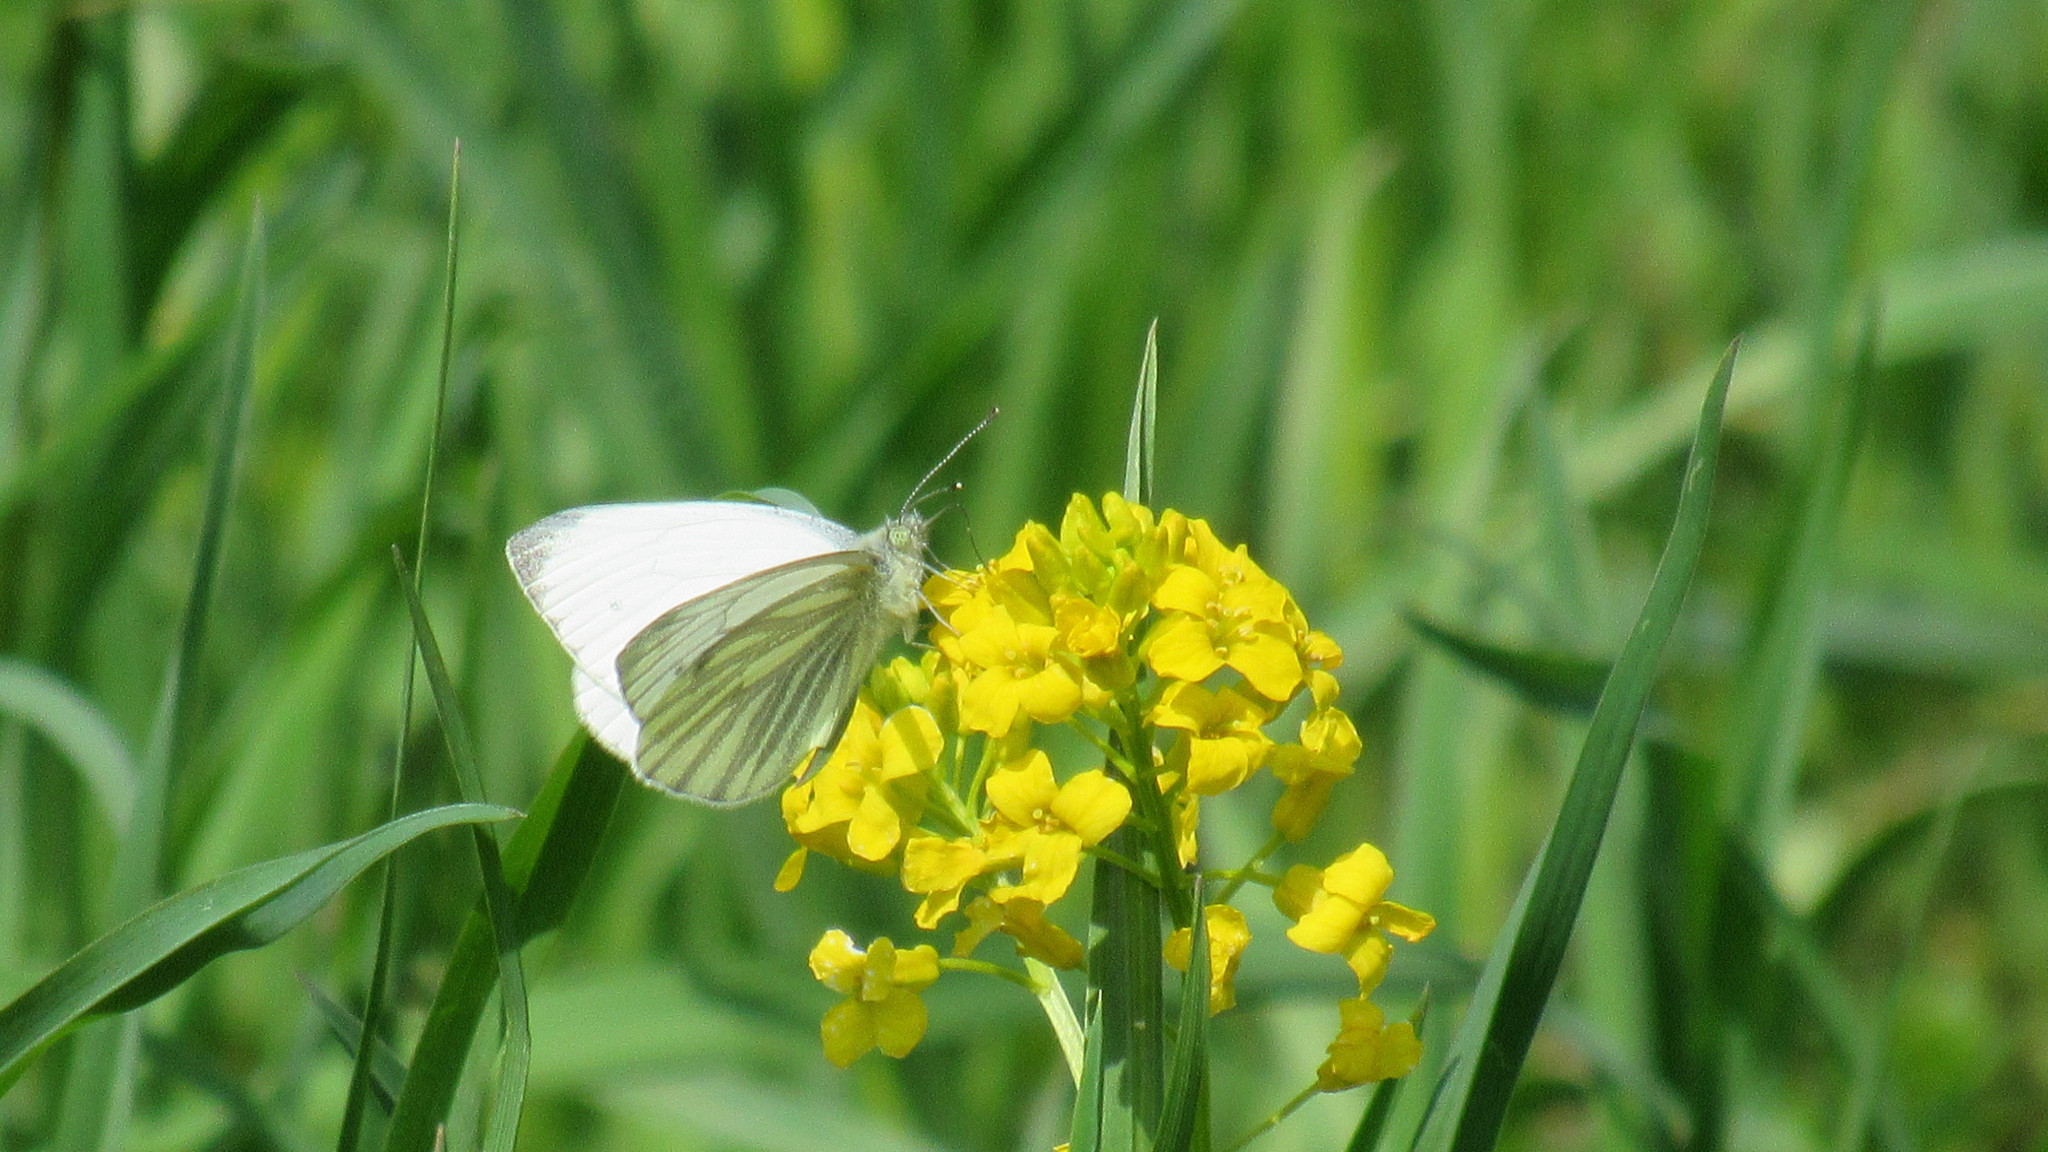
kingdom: Animalia
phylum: Arthropoda
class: Insecta
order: Lepidoptera
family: Pieridae
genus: Pieris
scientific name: Pieris napi
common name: Green-veined white
